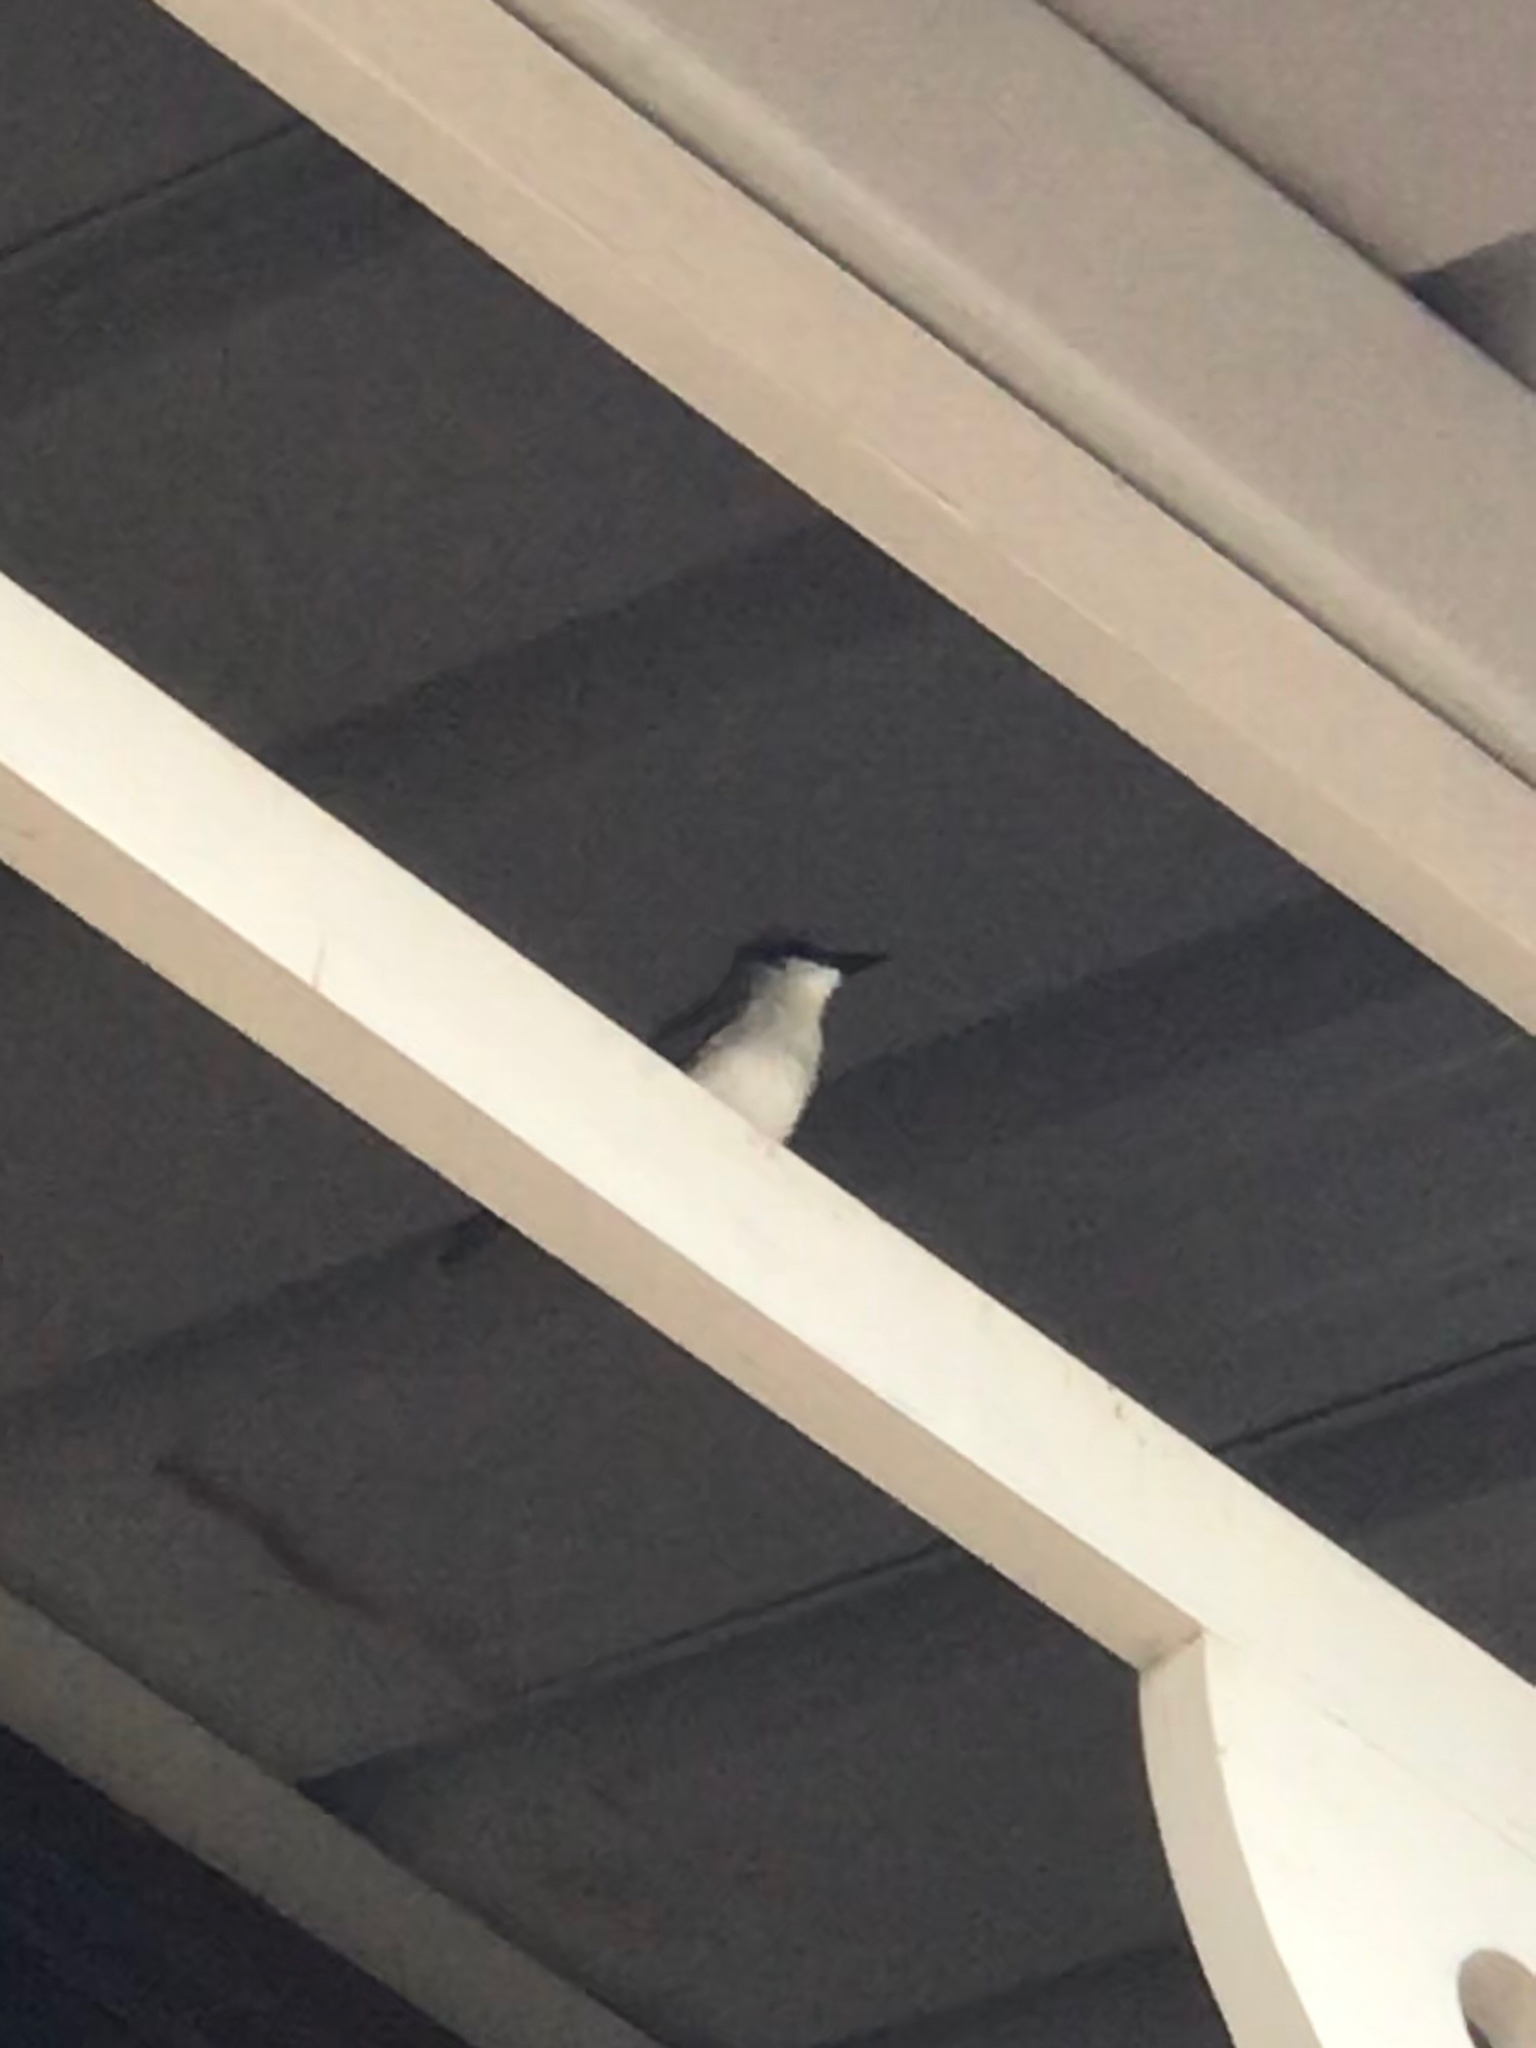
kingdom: Animalia
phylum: Chordata
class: Aves
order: Passeriformes
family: Tyrannidae
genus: Tyrannus
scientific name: Tyrannus dominicensis
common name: Gray kingbird
